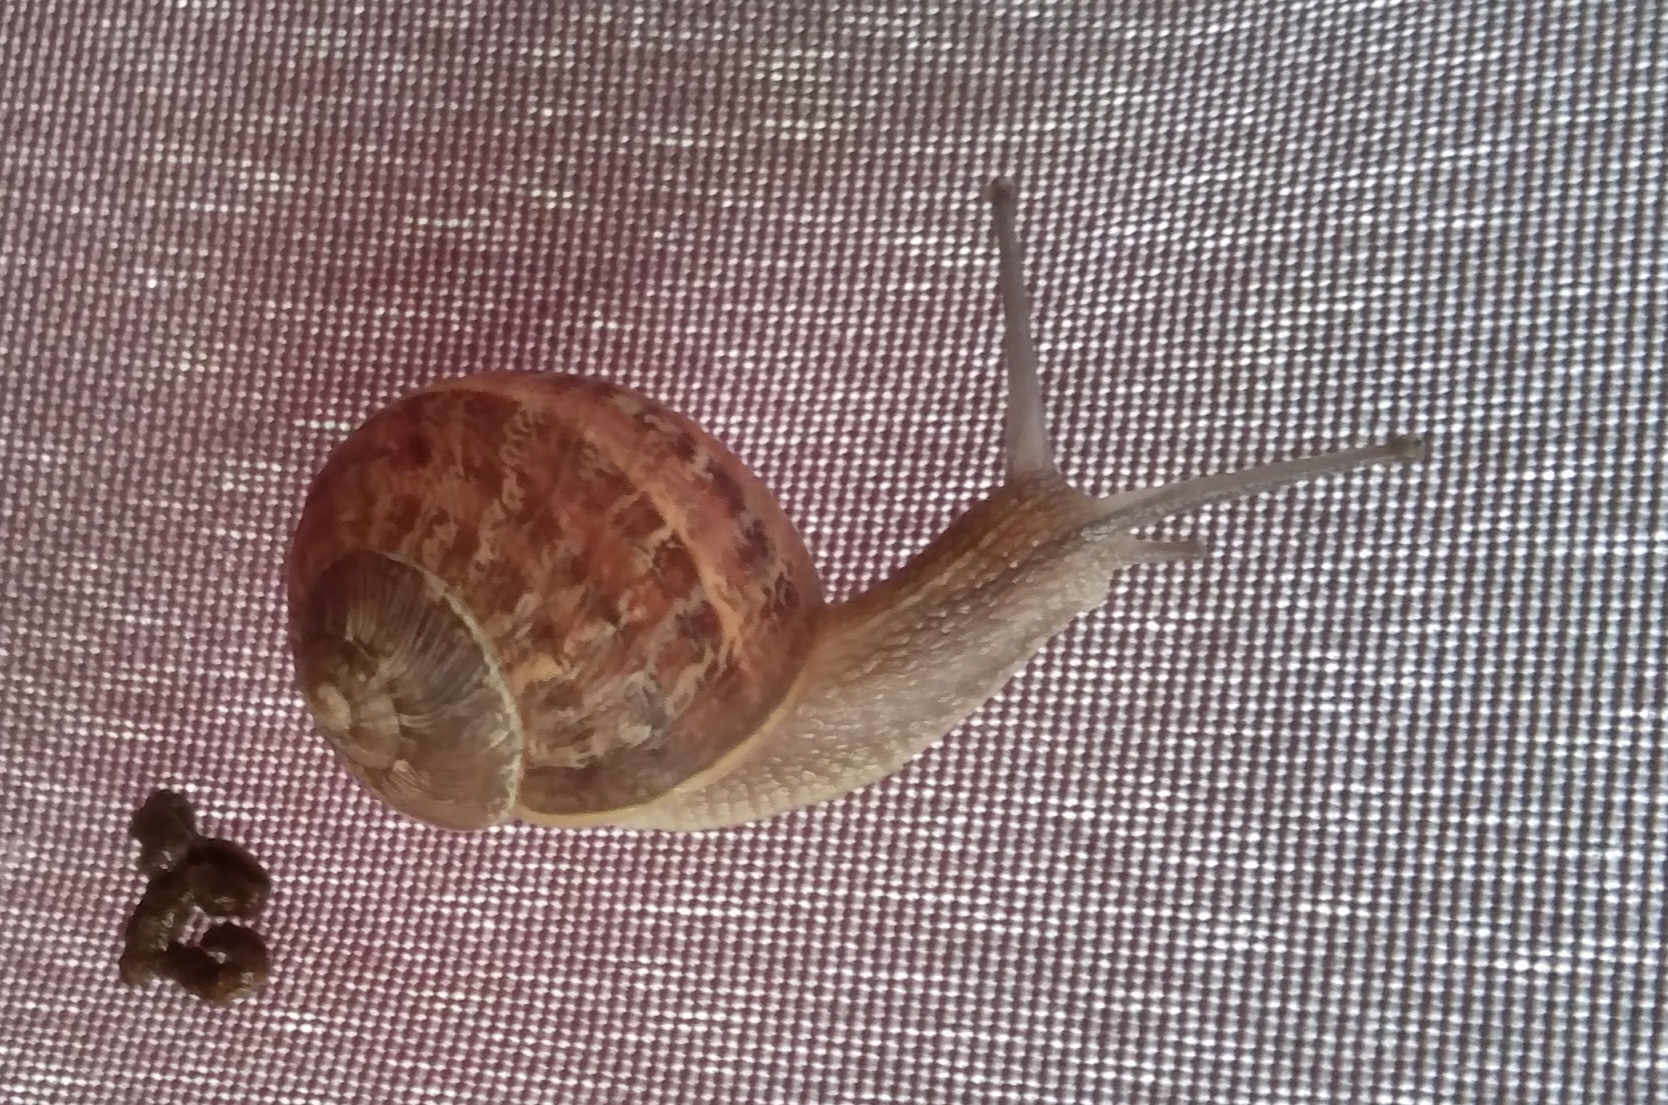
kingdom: Animalia
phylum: Mollusca
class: Gastropoda
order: Stylommatophora
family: Helicidae
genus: Cornu
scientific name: Cornu aspersum
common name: Brown garden snail
